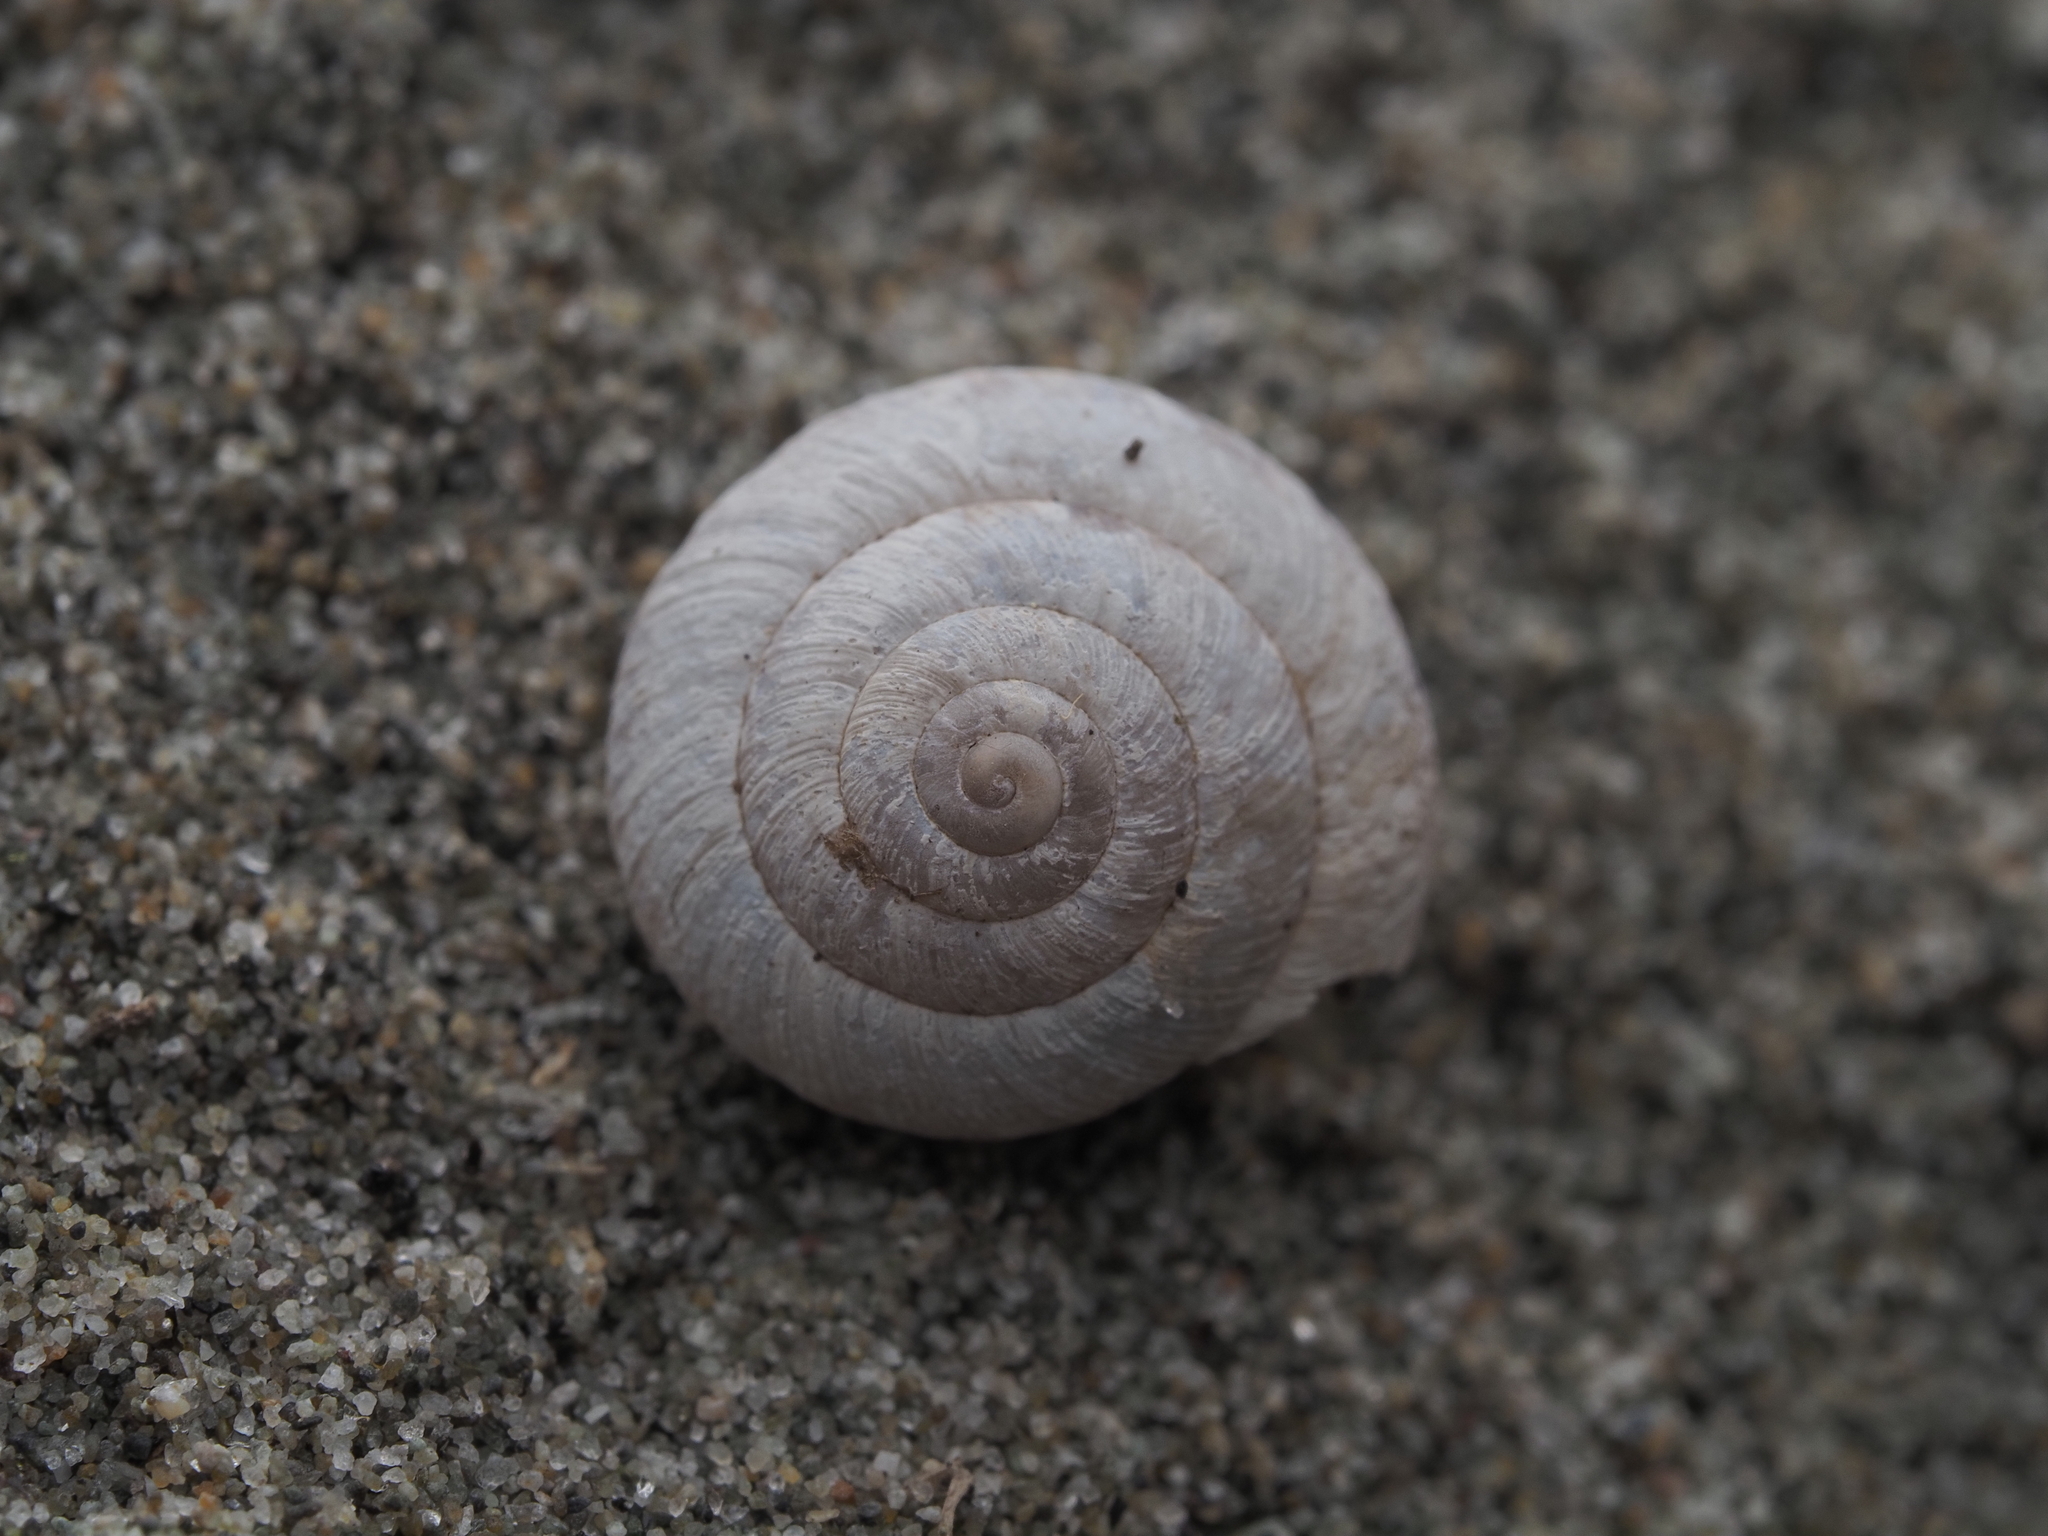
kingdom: Animalia
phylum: Mollusca
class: Gastropoda
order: Stylommatophora
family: Geomitridae
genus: Xeroplexa
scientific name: Xeroplexa intersecta
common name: Wrinkled snail
